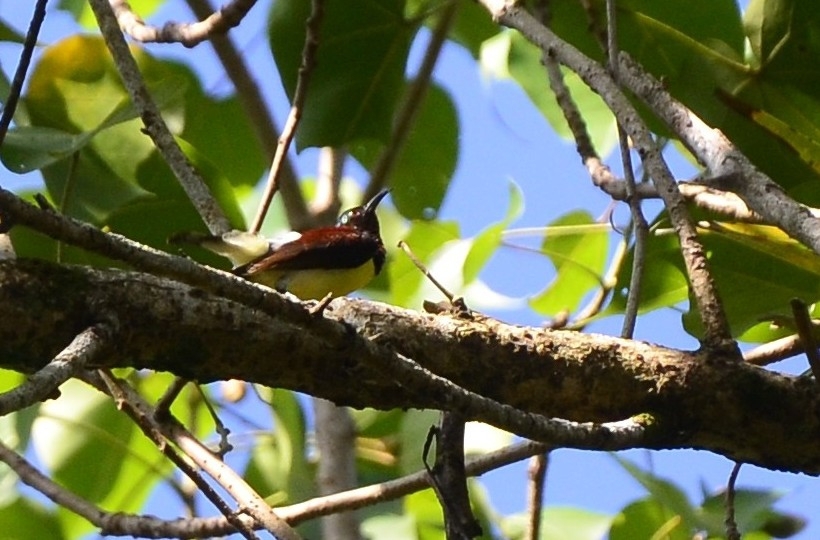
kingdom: Animalia
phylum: Chordata
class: Aves
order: Passeriformes
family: Nectariniidae
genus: Leptocoma
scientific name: Leptocoma zeylonica
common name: Purple-rumped sunbird
